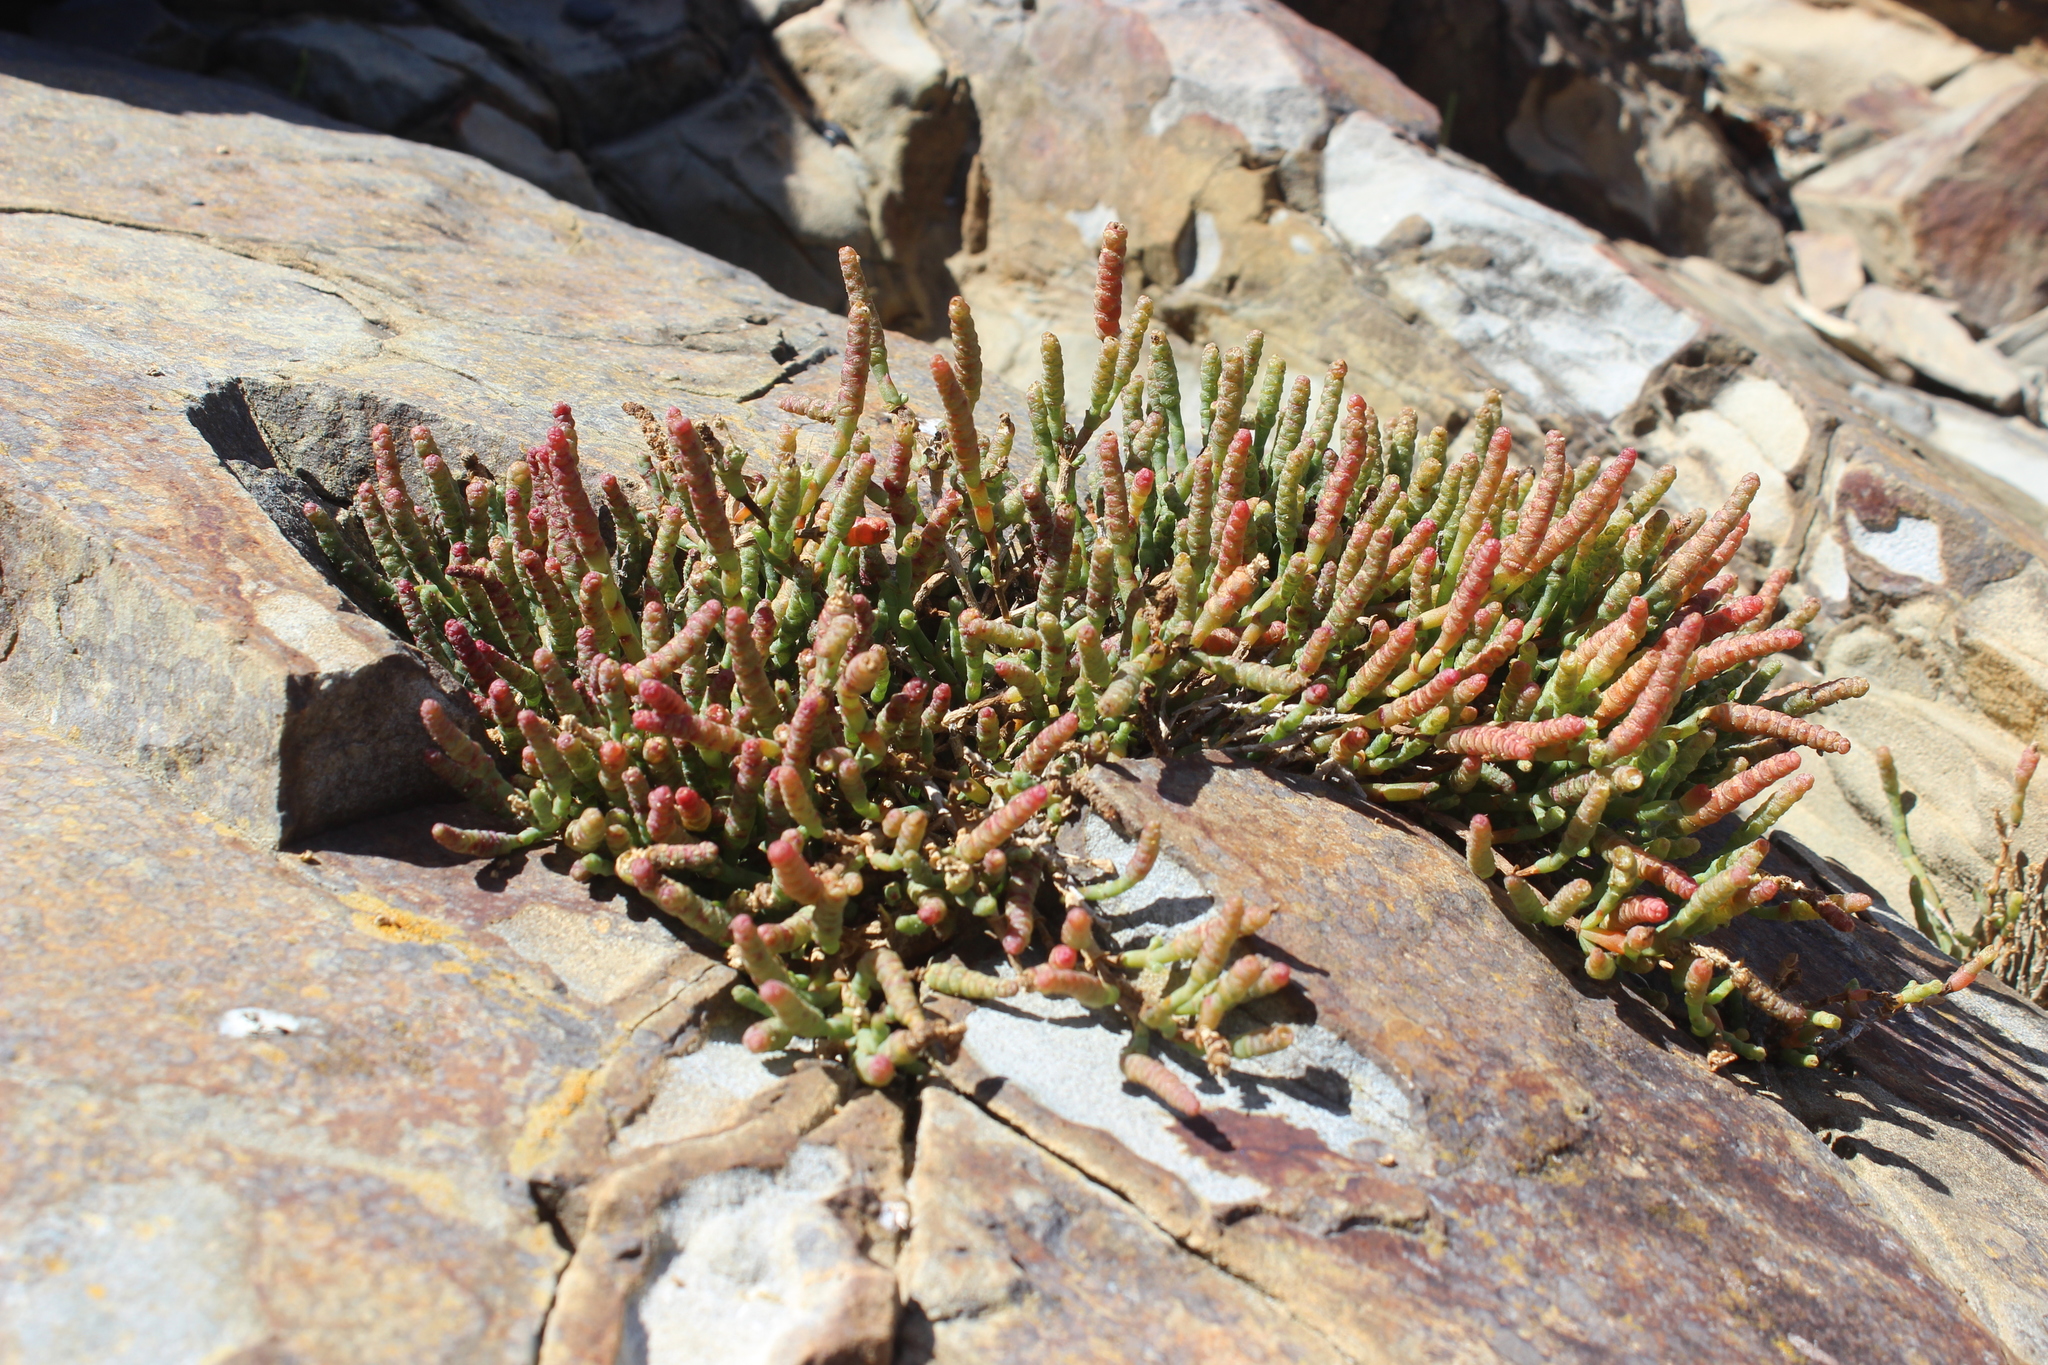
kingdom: Plantae
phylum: Tracheophyta
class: Magnoliopsida
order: Caryophyllales
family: Amaranthaceae
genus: Salicornia
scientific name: Salicornia quinqueflora
